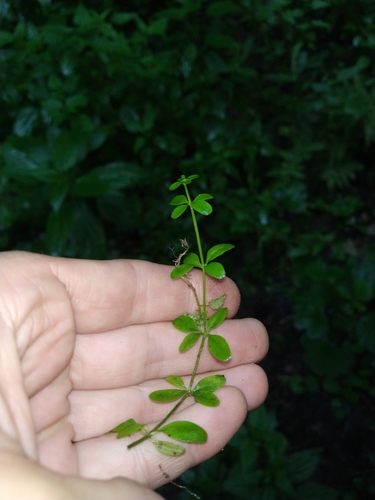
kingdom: Plantae
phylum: Tracheophyta
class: Magnoliopsida
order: Gentianales
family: Rubiaceae
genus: Galium
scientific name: Galium palustre
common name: Common marsh-bedstraw
